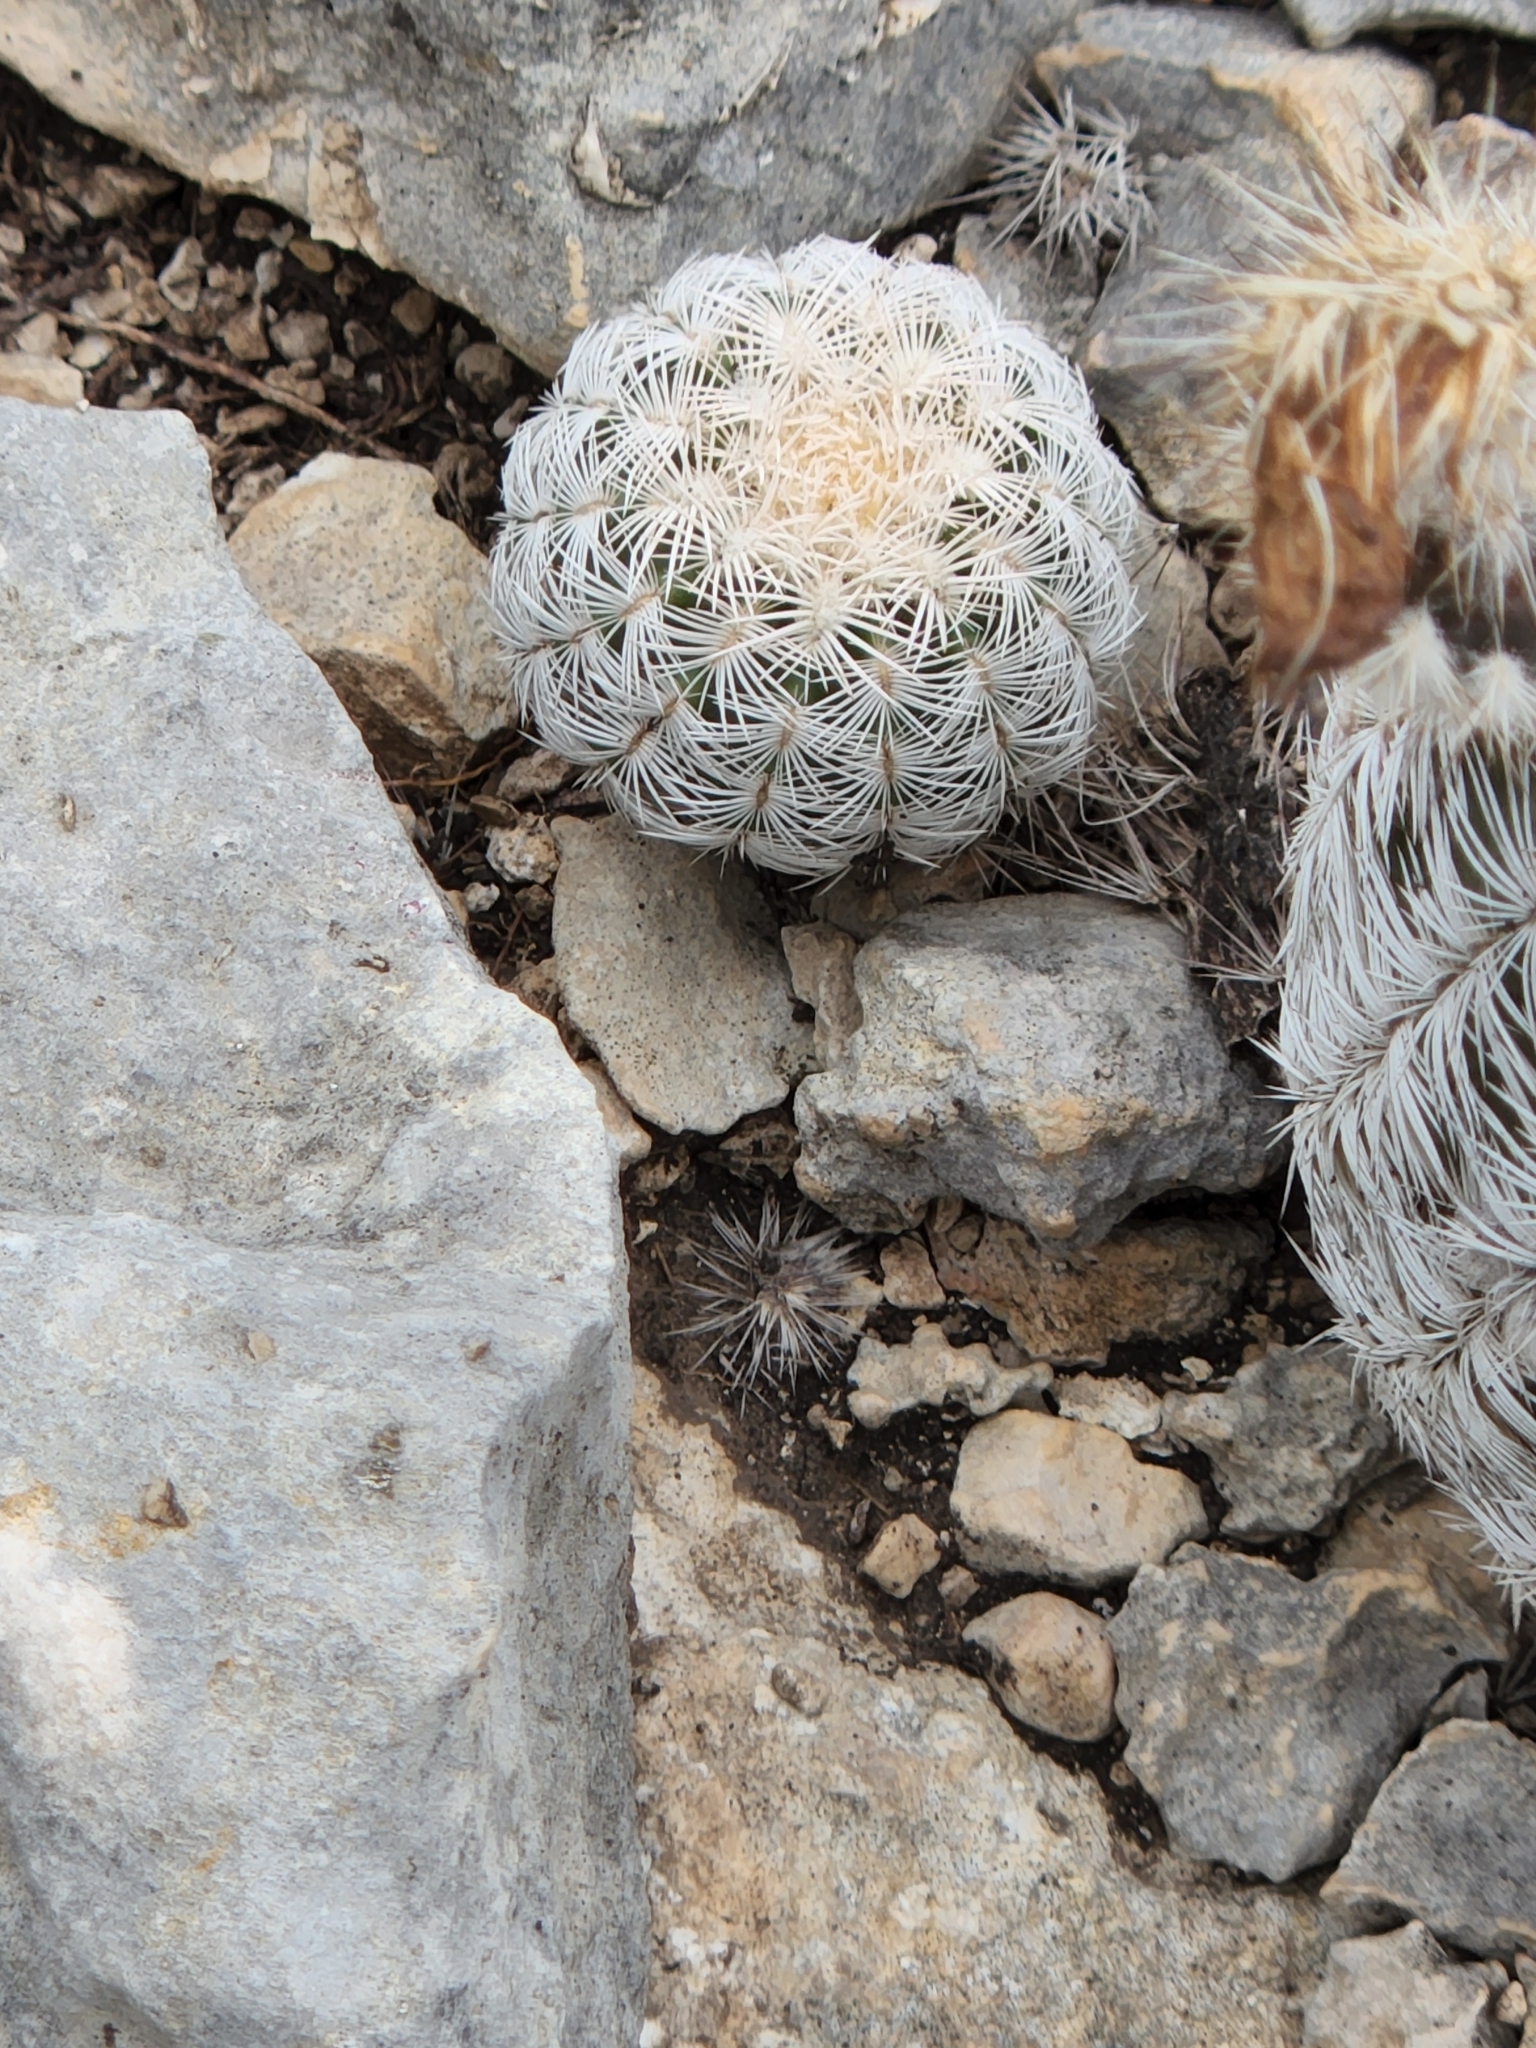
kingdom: Plantae
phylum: Tracheophyta
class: Magnoliopsida
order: Caryophyllales
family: Cactaceae
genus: Echinocereus
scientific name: Echinocereus reichenbachii
